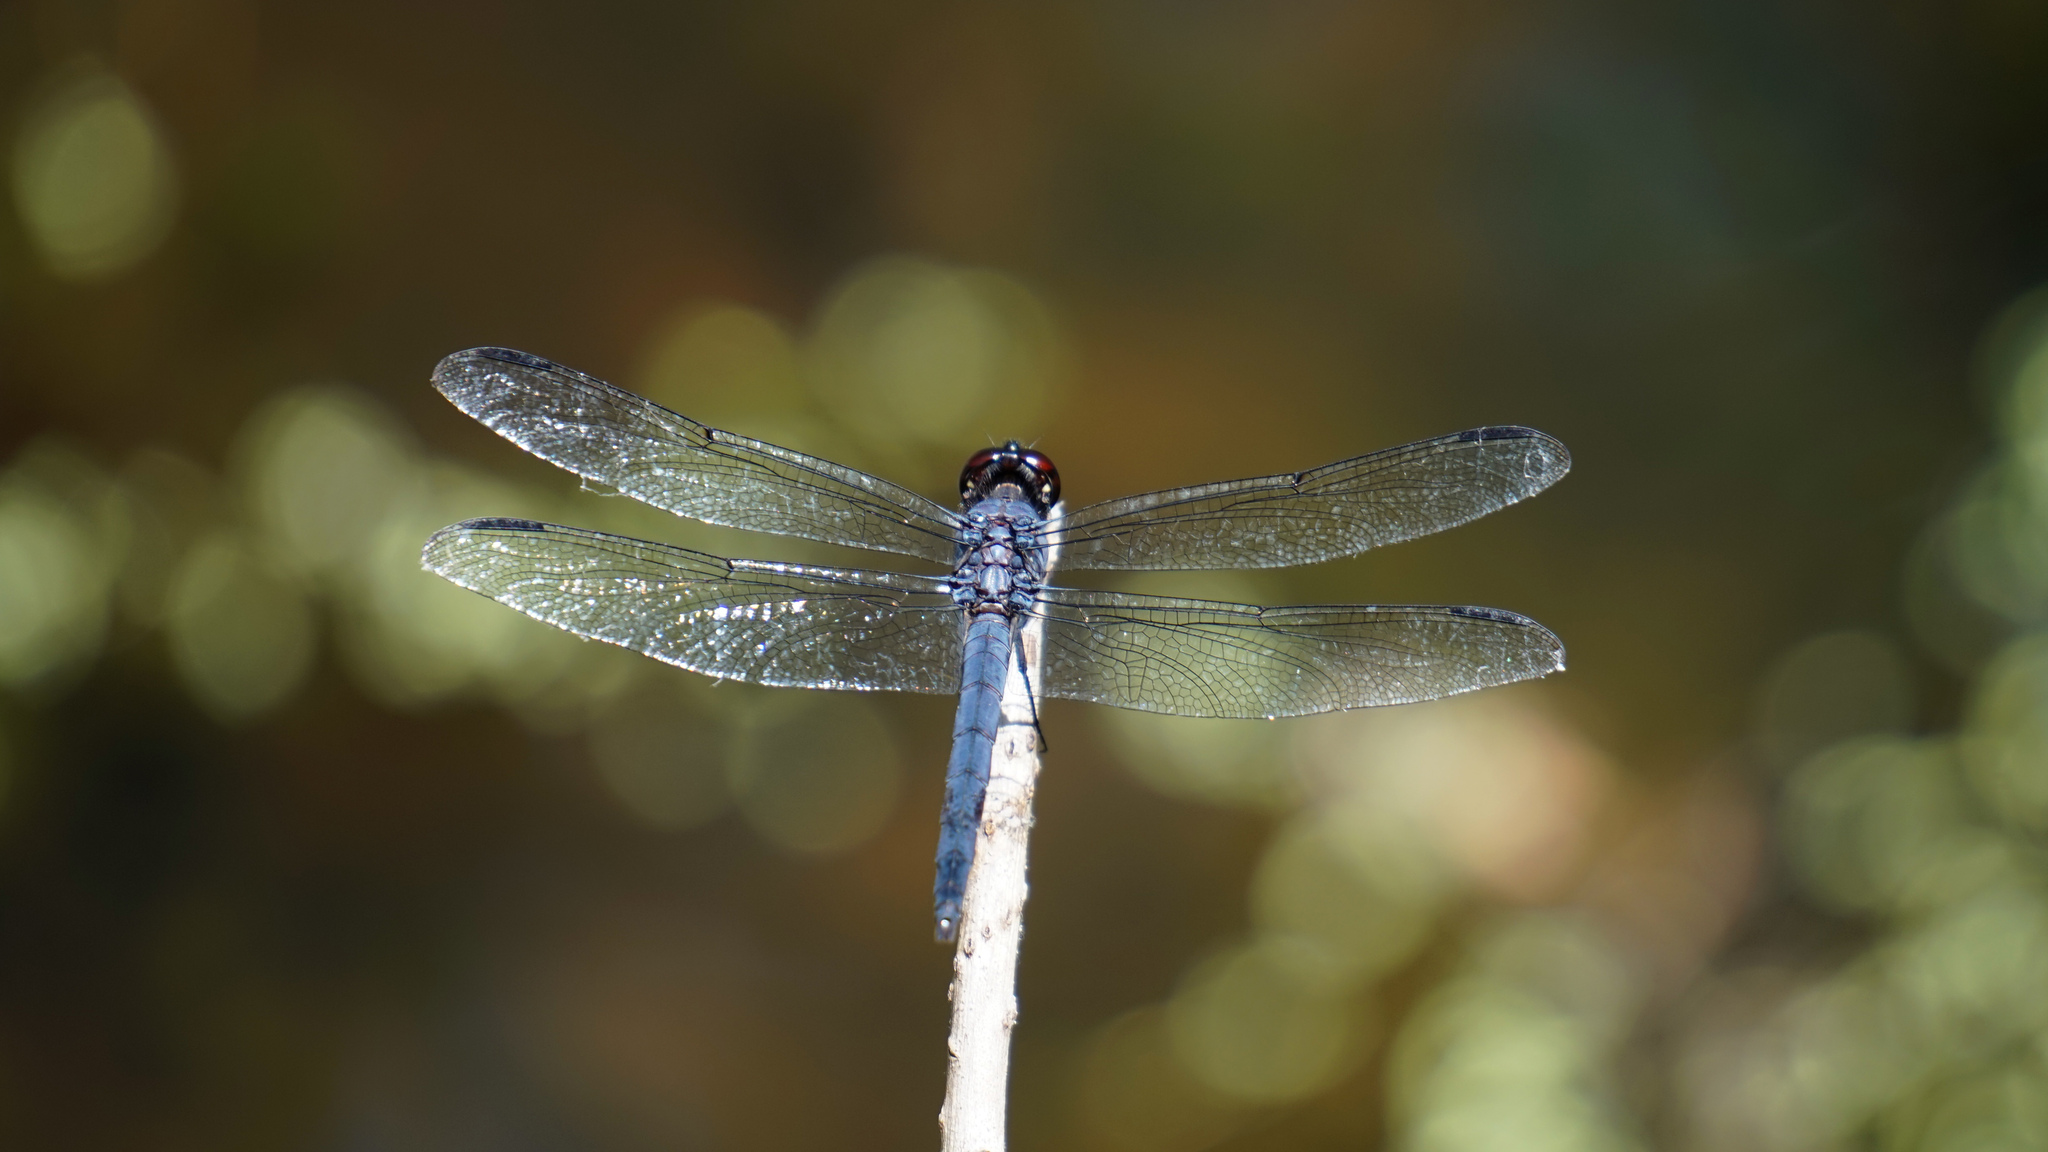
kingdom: Animalia
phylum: Arthropoda
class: Insecta
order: Odonata
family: Libellulidae
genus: Libellula
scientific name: Libellula incesta
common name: Slaty skimmer
